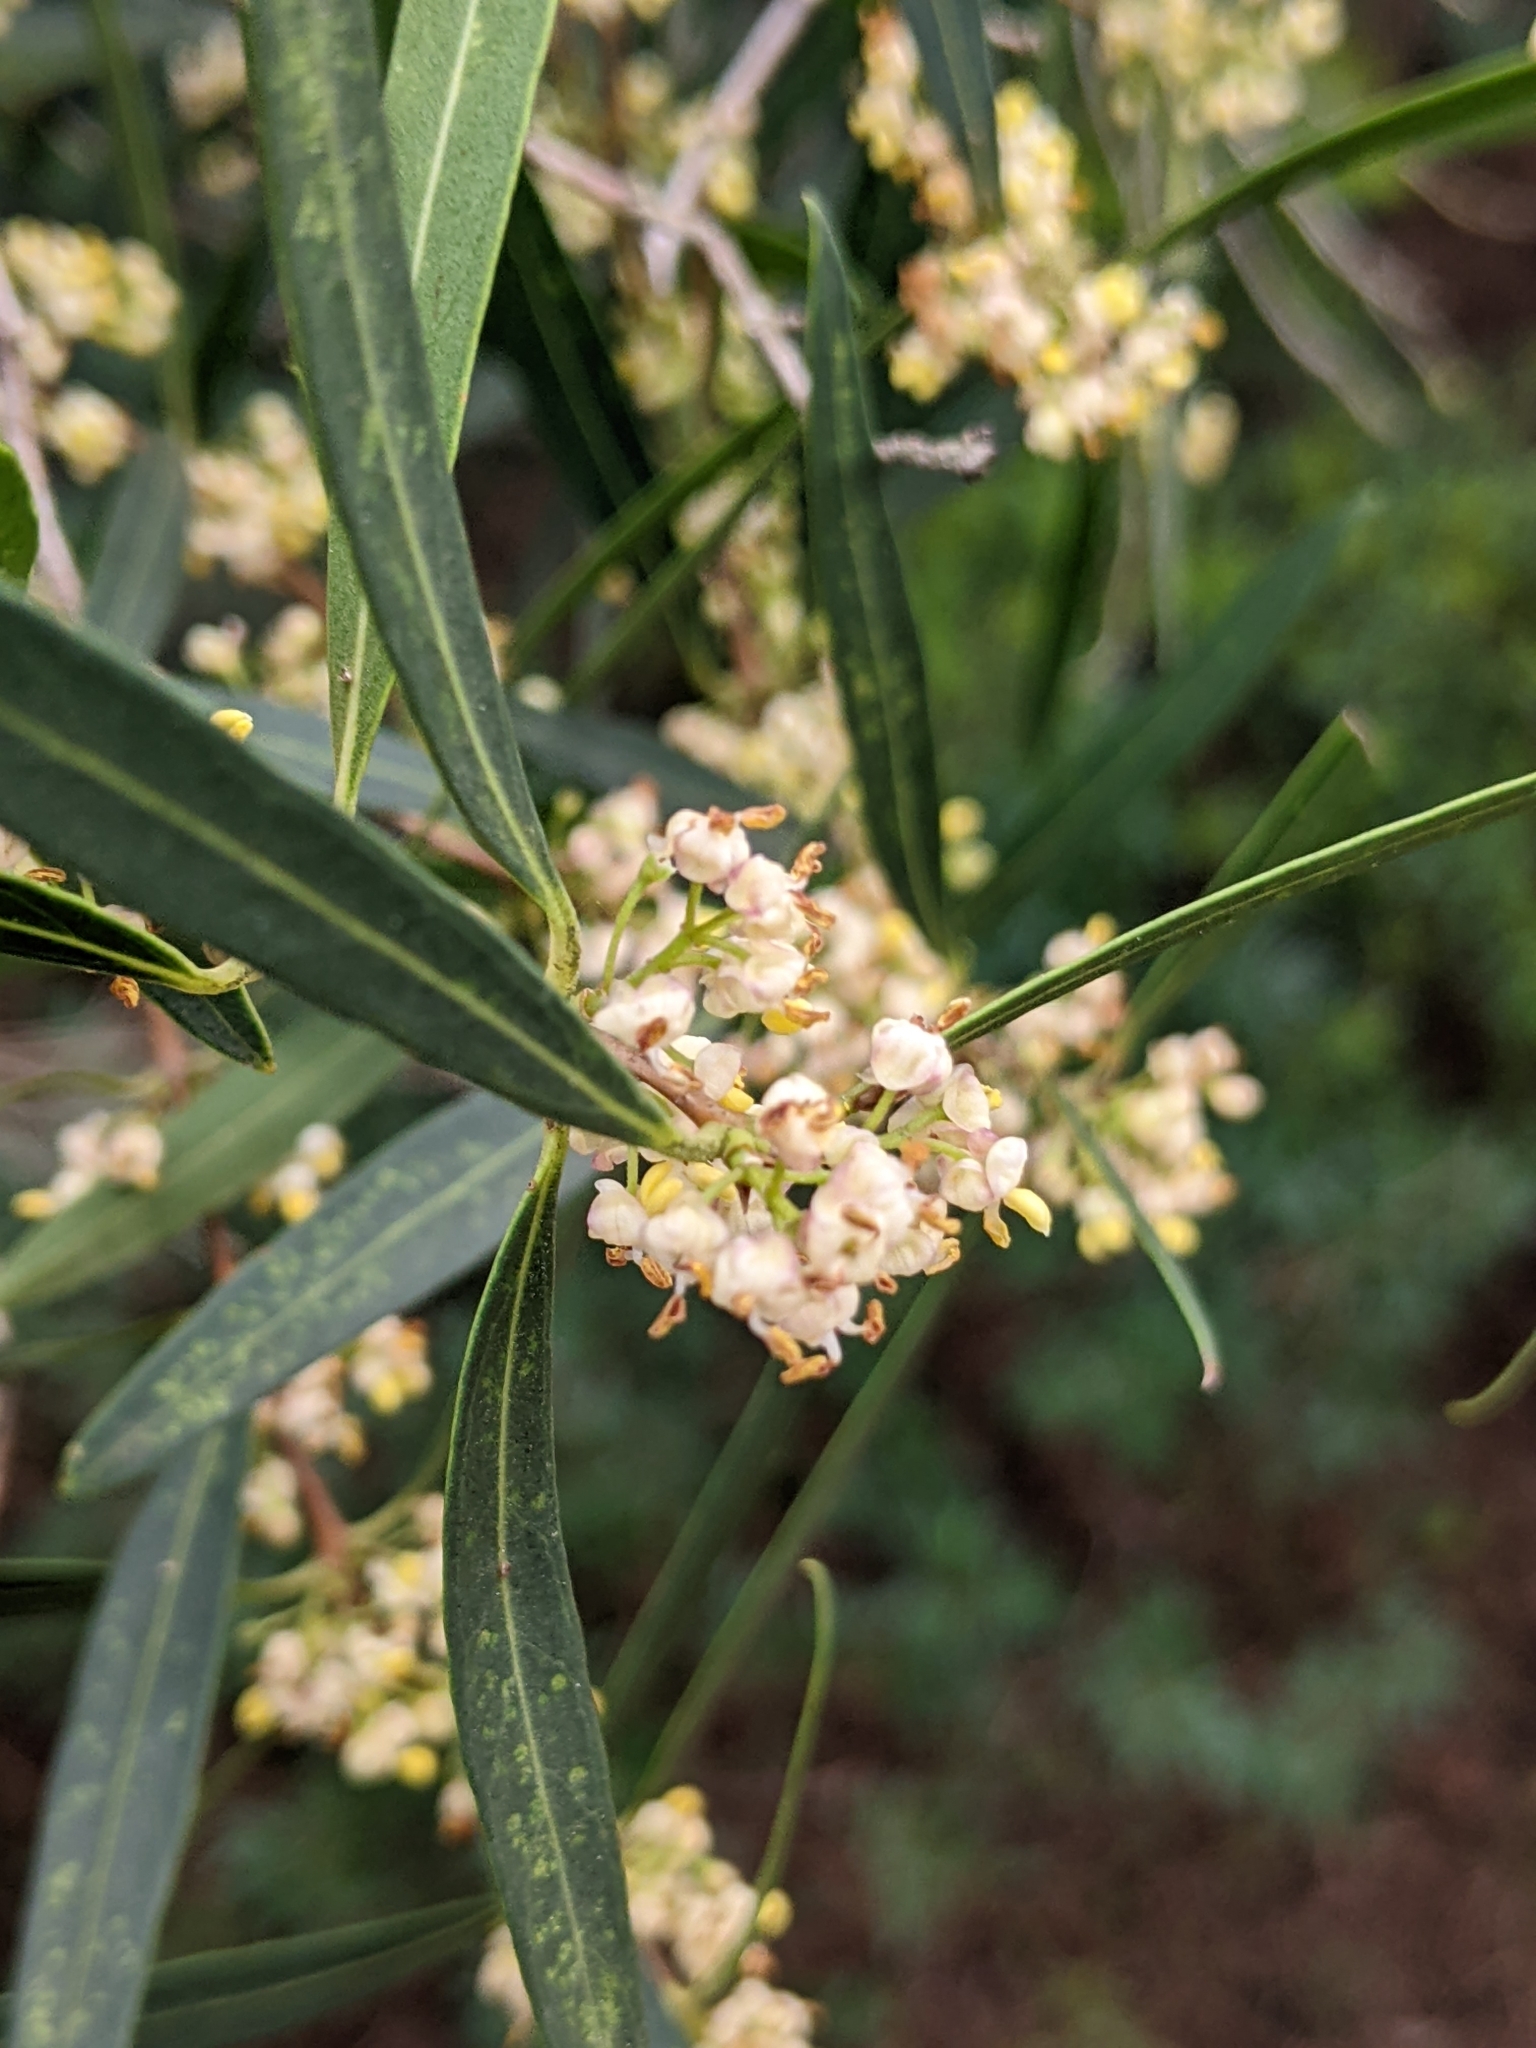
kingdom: Plantae
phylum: Tracheophyta
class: Magnoliopsida
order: Lamiales
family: Oleaceae
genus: Phillyrea
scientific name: Phillyrea angustifolia
